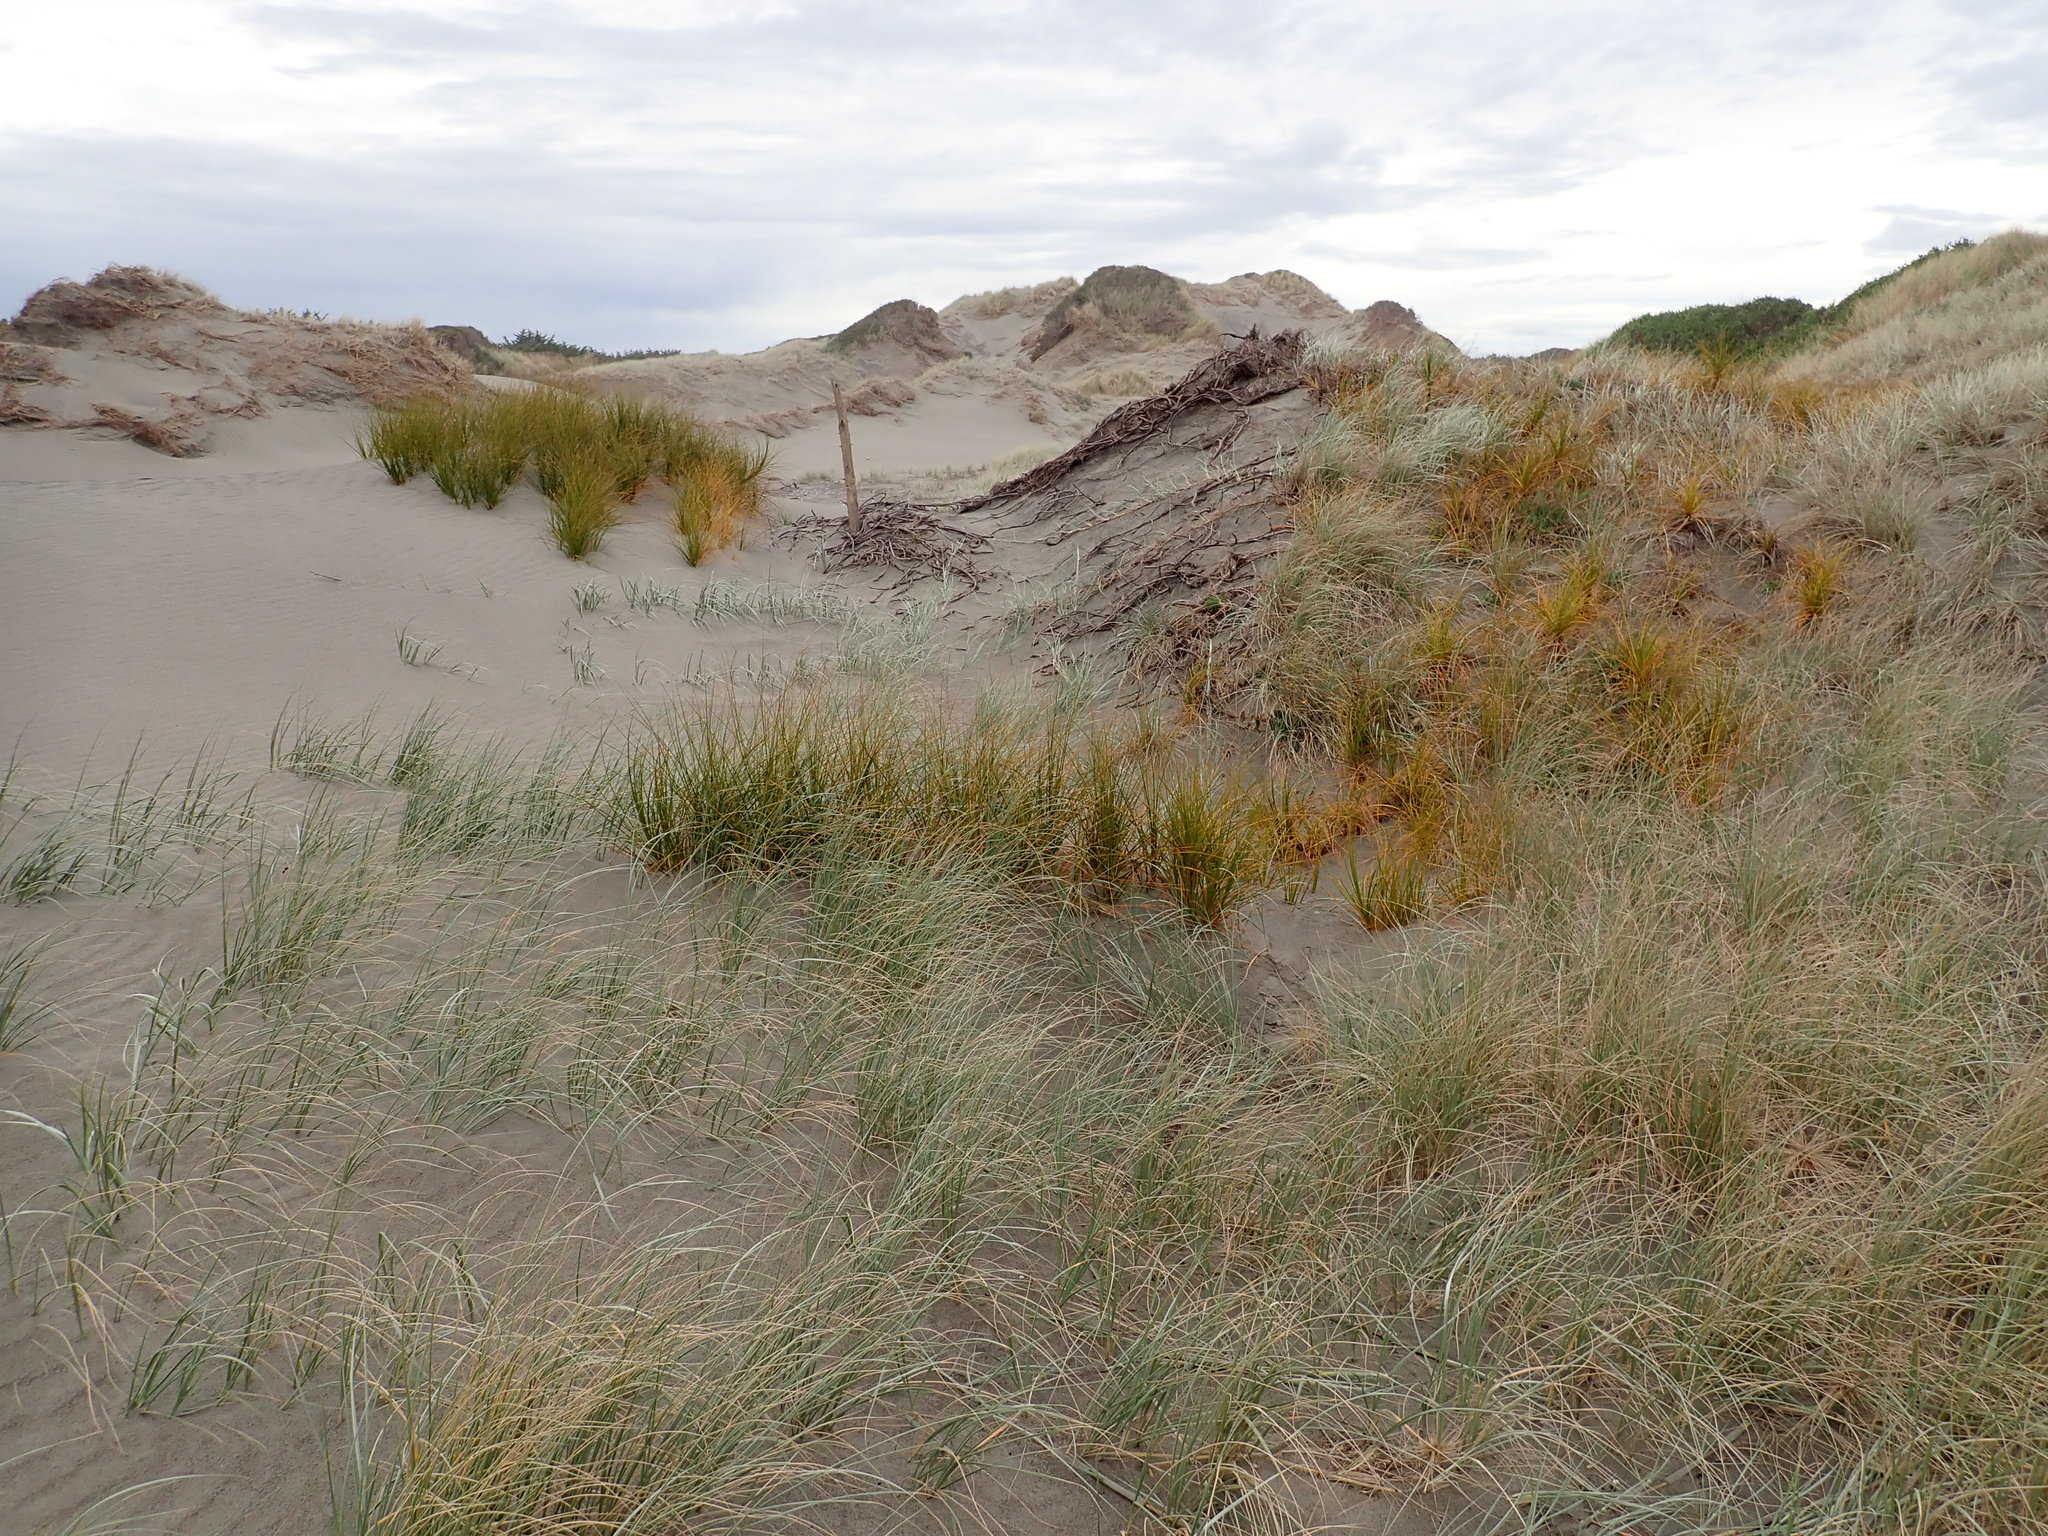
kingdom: Plantae
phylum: Tracheophyta
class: Liliopsida
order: Poales
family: Cyperaceae
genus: Ficinia
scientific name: Ficinia spiralis
